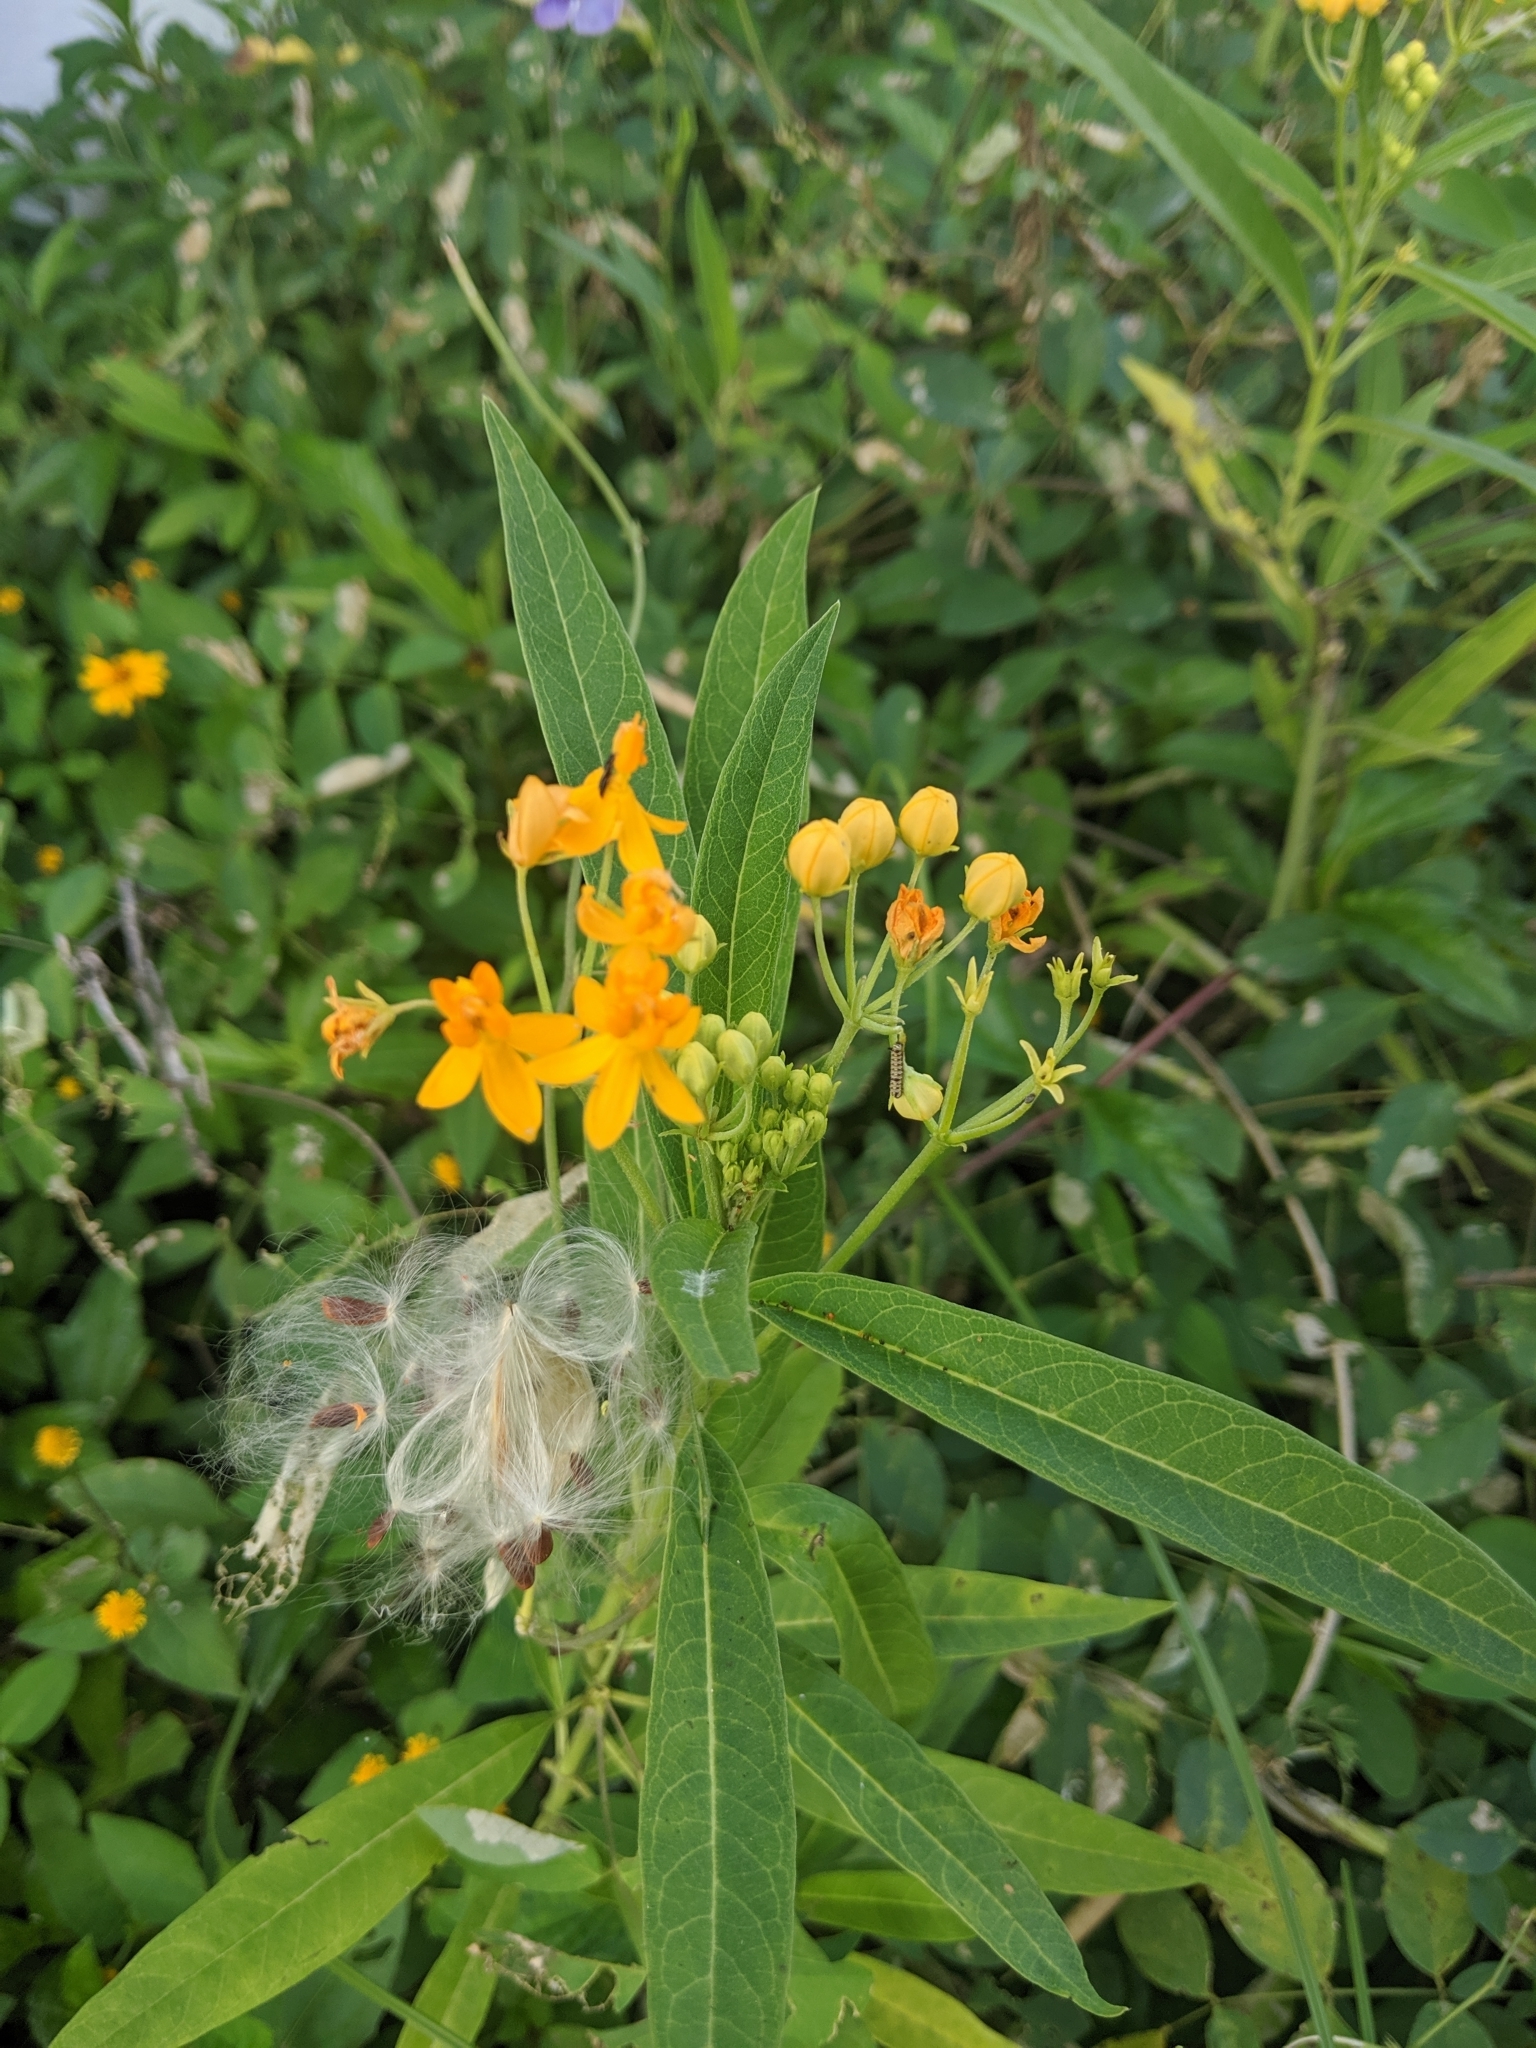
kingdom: Plantae
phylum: Tracheophyta
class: Magnoliopsida
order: Gentianales
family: Apocynaceae
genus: Asclepias
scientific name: Asclepias curassavica
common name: Bloodflower
